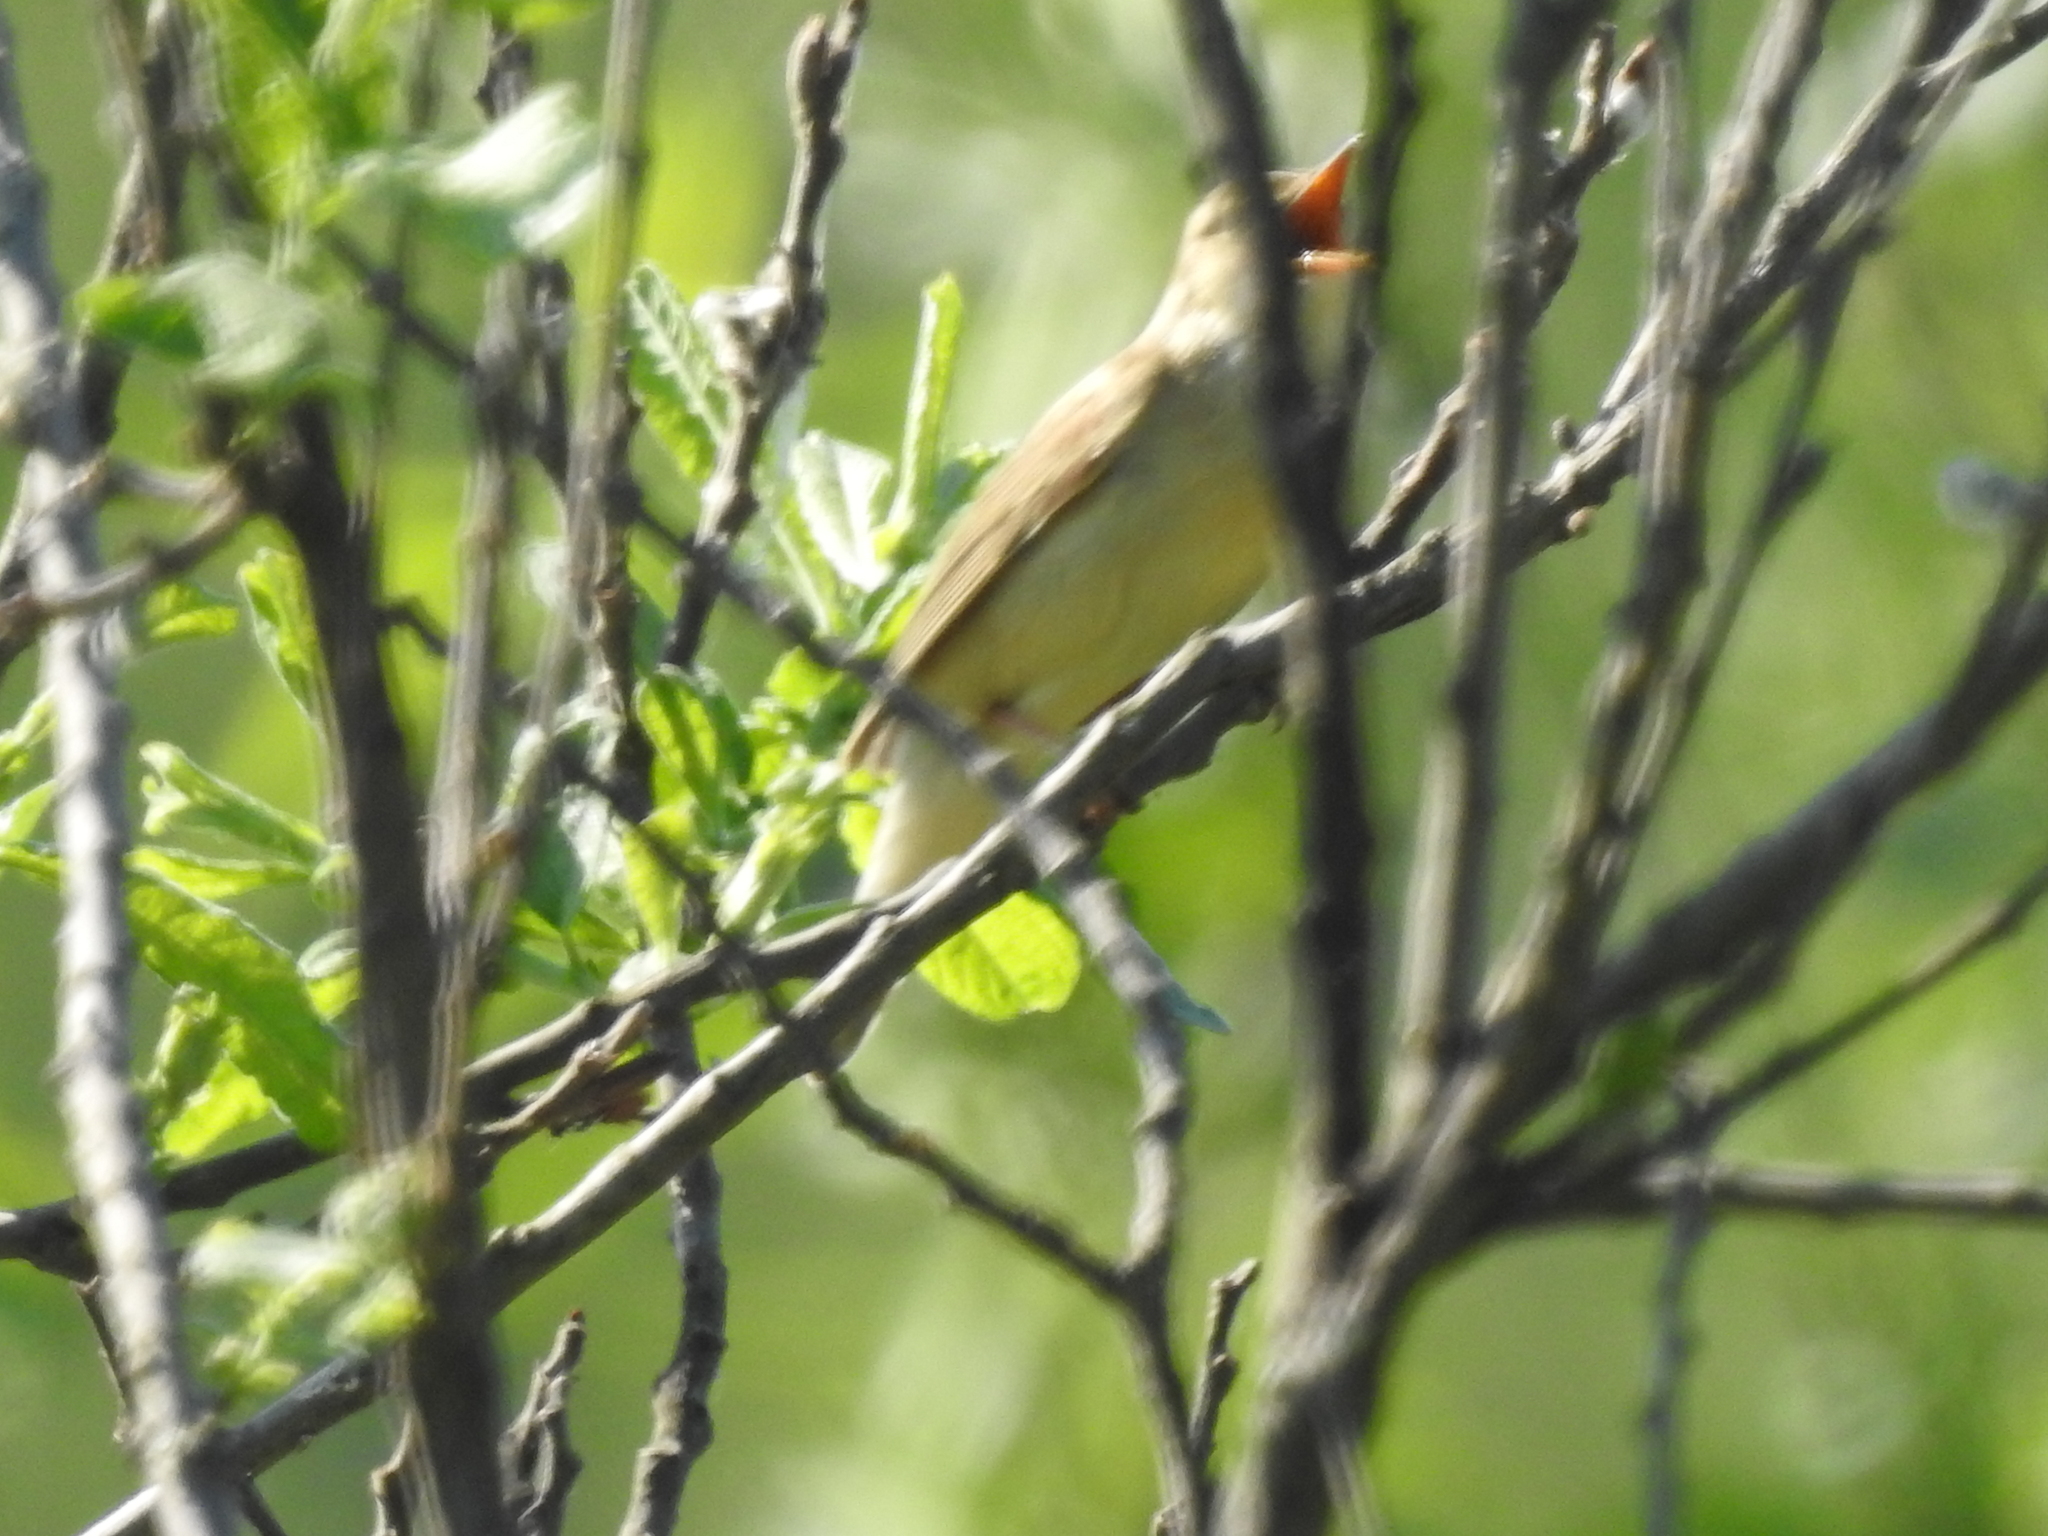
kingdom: Animalia
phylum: Chordata
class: Aves
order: Passeriformes
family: Acrocephalidae
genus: Acrocephalus
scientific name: Acrocephalus palustris
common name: Marsh warbler
